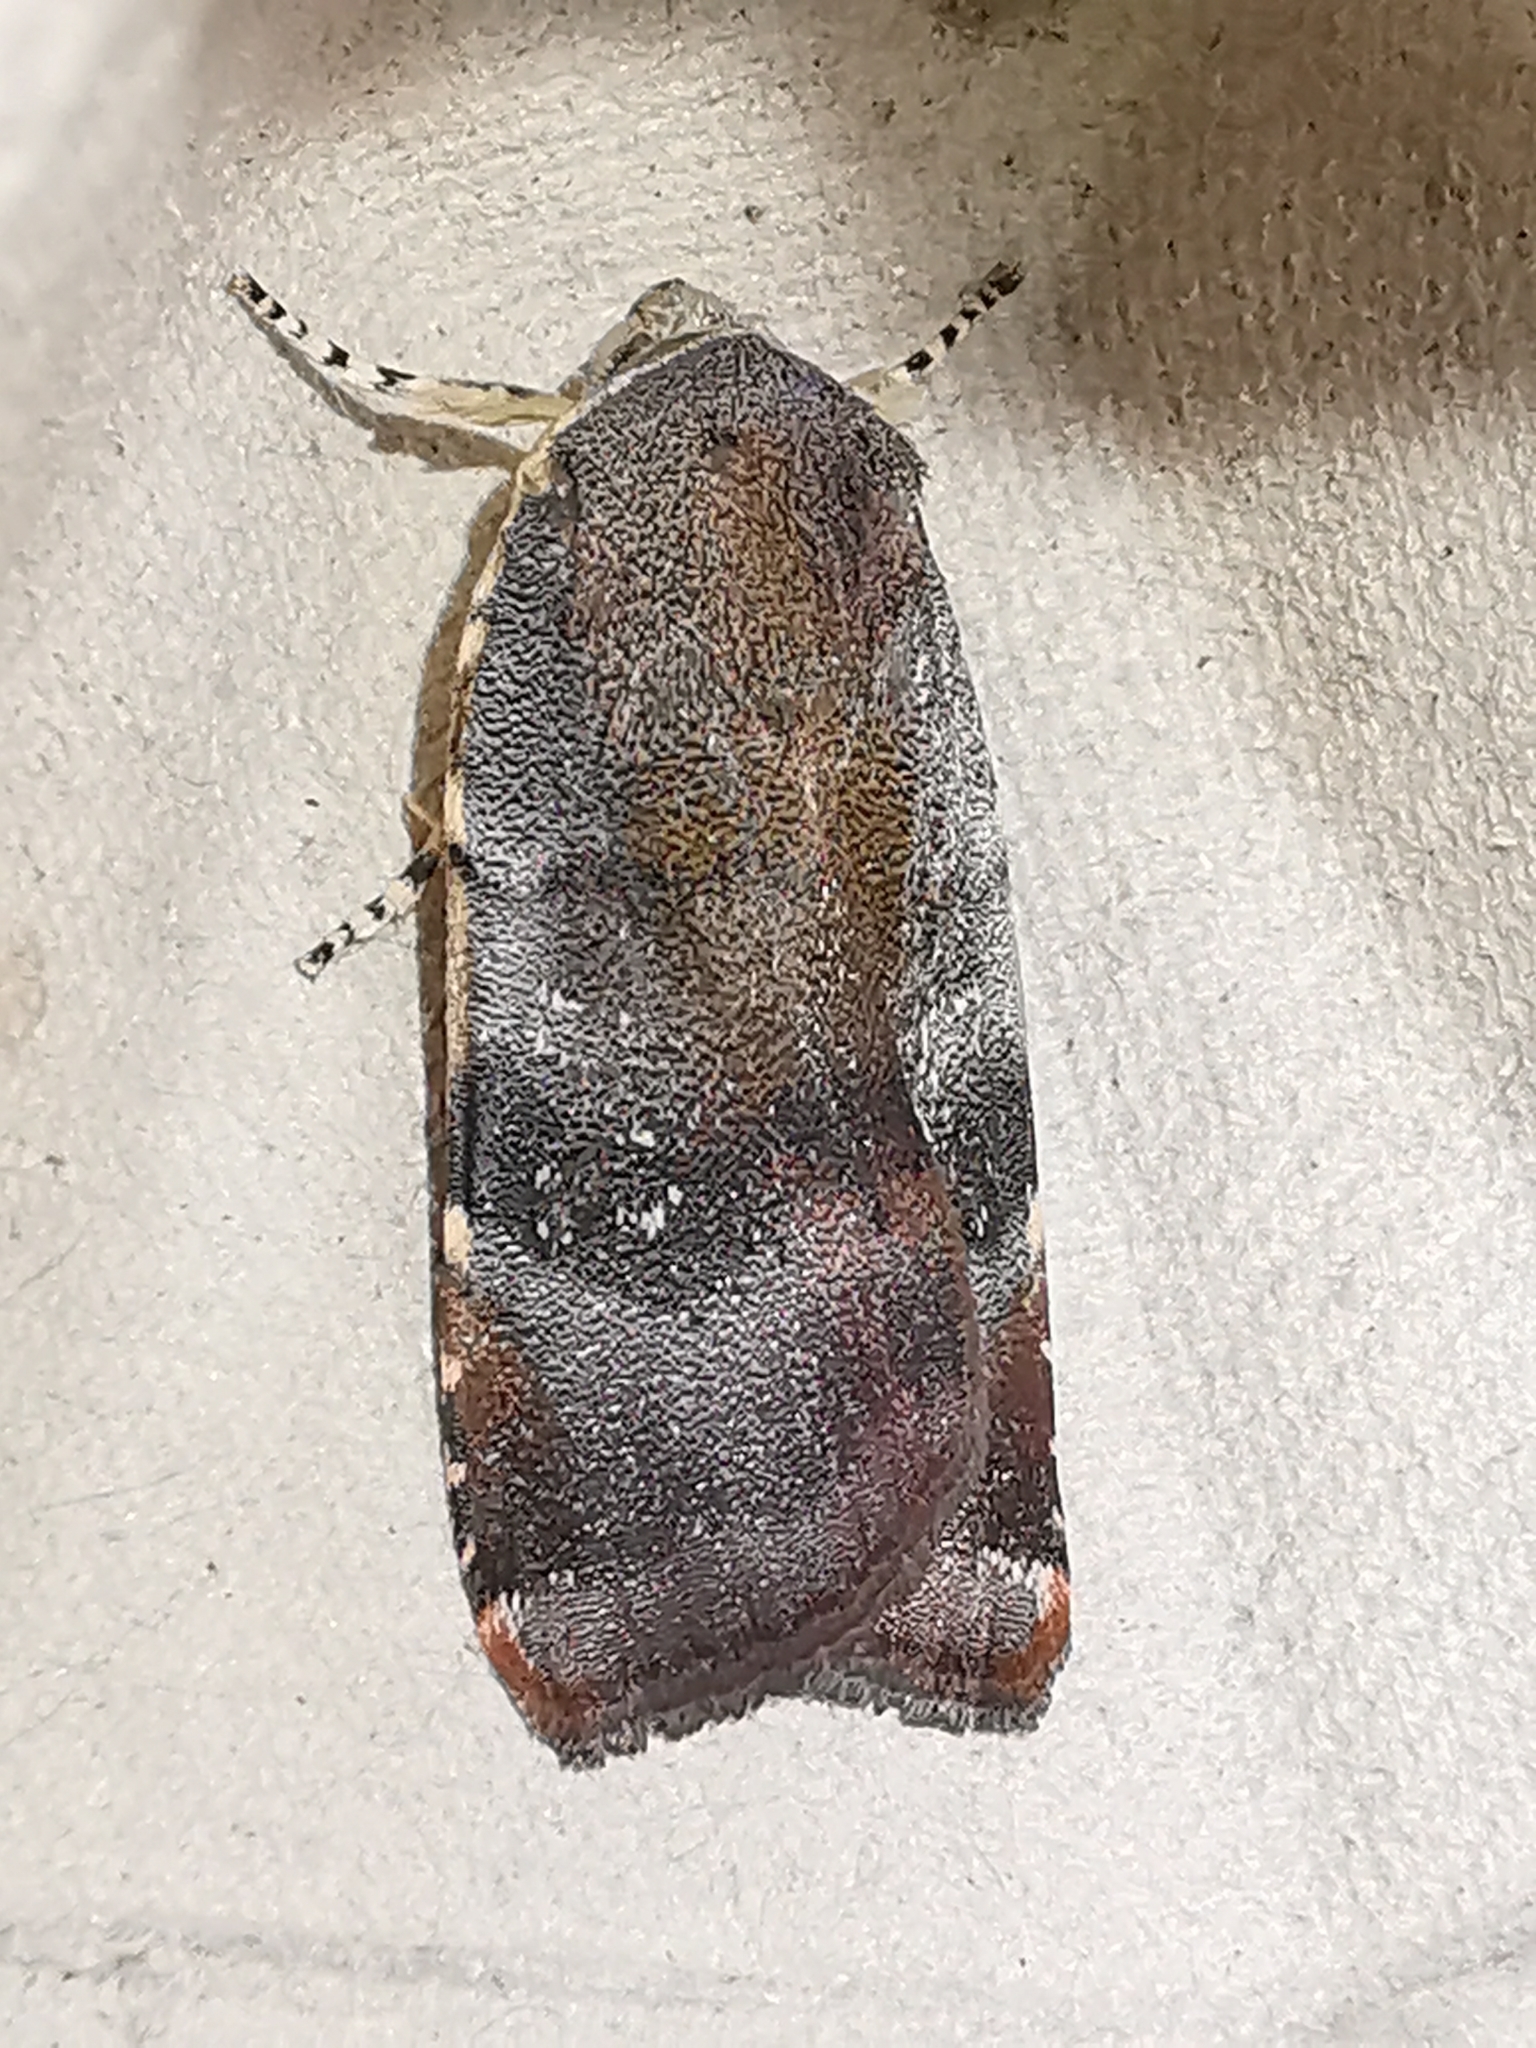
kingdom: Animalia
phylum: Arthropoda
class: Insecta
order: Lepidoptera
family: Noctuidae
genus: Noctua
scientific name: Noctua janthe
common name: Lesser broad-bordered yellow underwing
